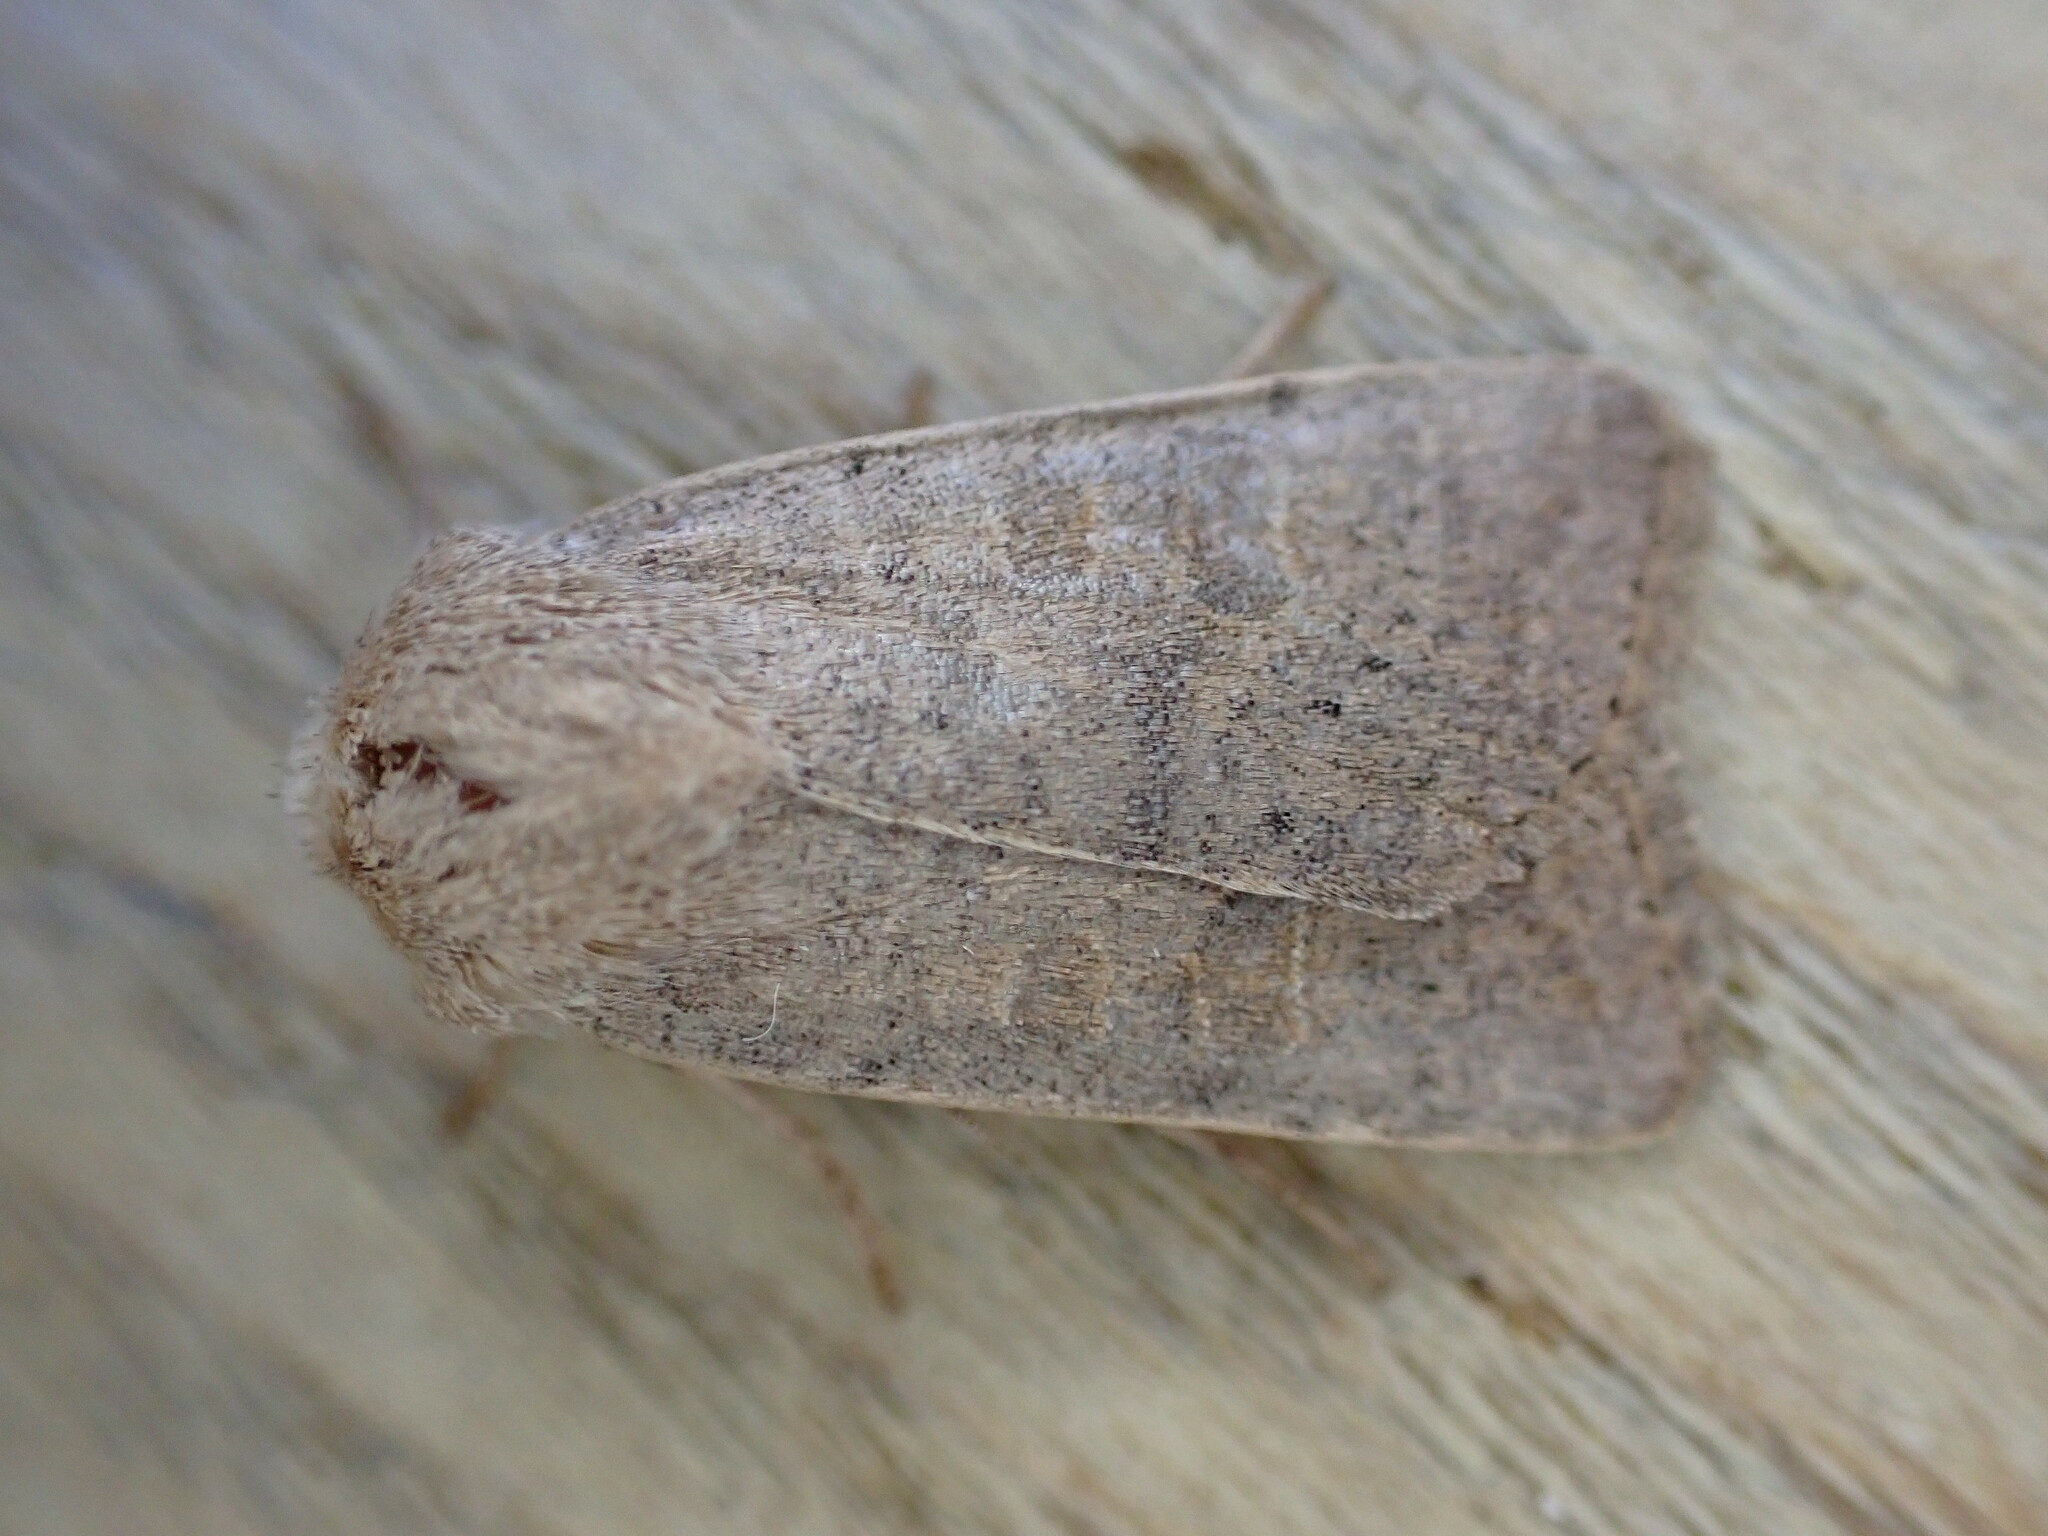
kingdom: Animalia
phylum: Arthropoda
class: Insecta
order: Lepidoptera
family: Noctuidae
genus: Hoplodrina
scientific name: Hoplodrina ambigua
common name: Vine's rustic
